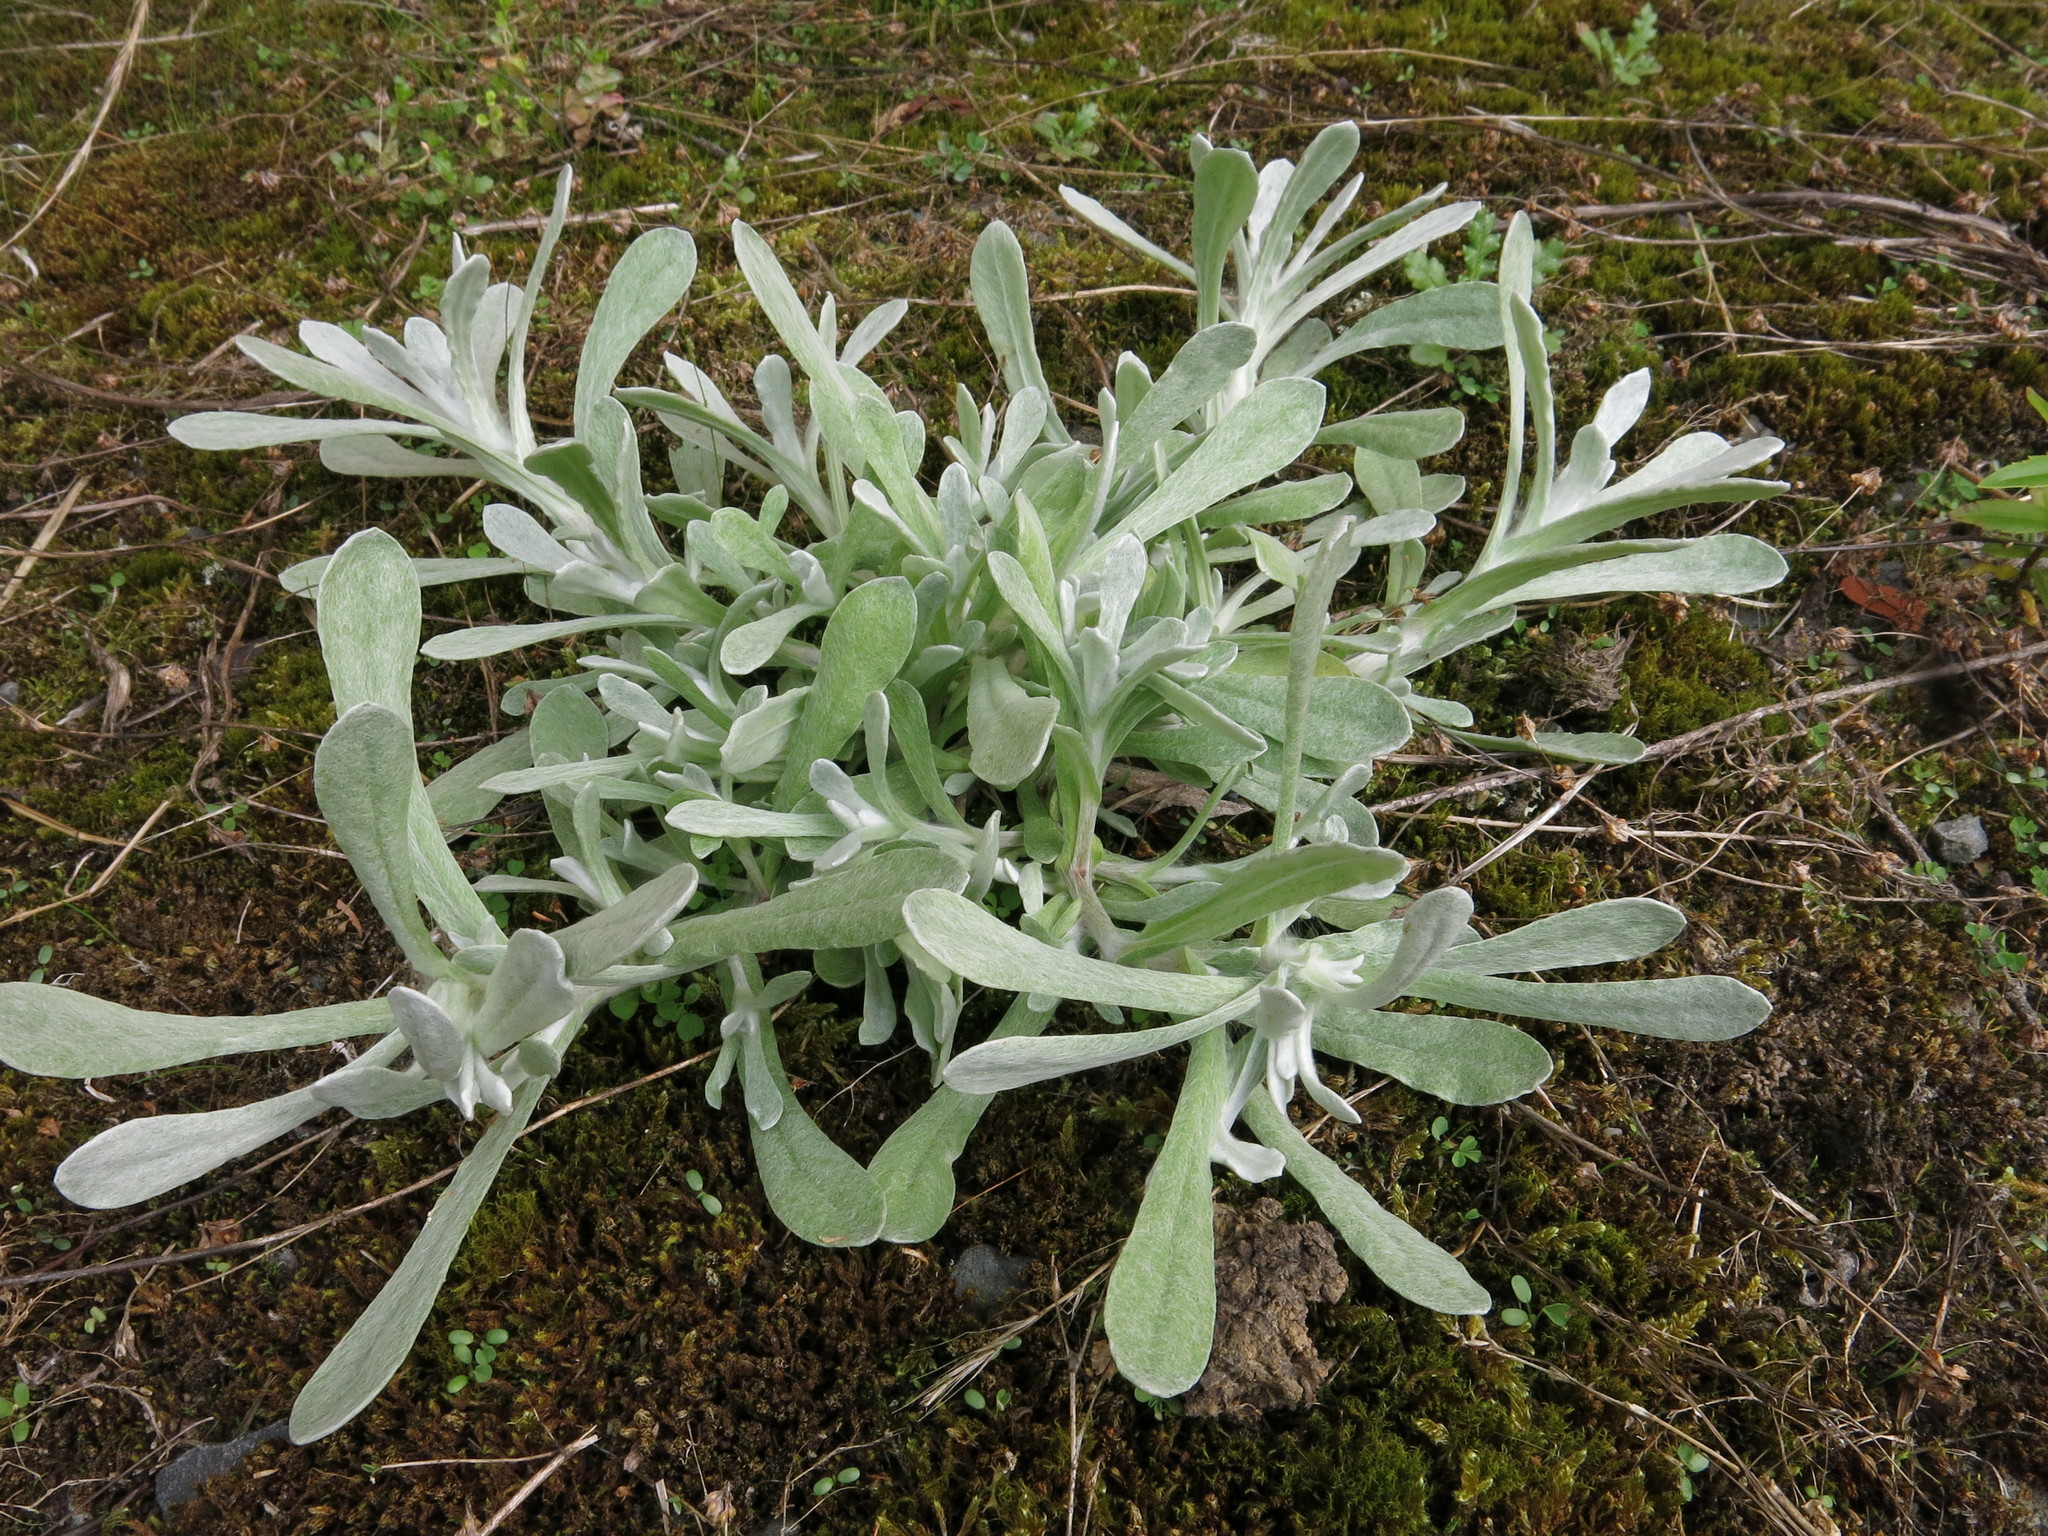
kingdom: Plantae
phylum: Tracheophyta
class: Magnoliopsida
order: Asterales
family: Asteraceae
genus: Helichrysum
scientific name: Helichrysum luteoalbum
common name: Daisy
